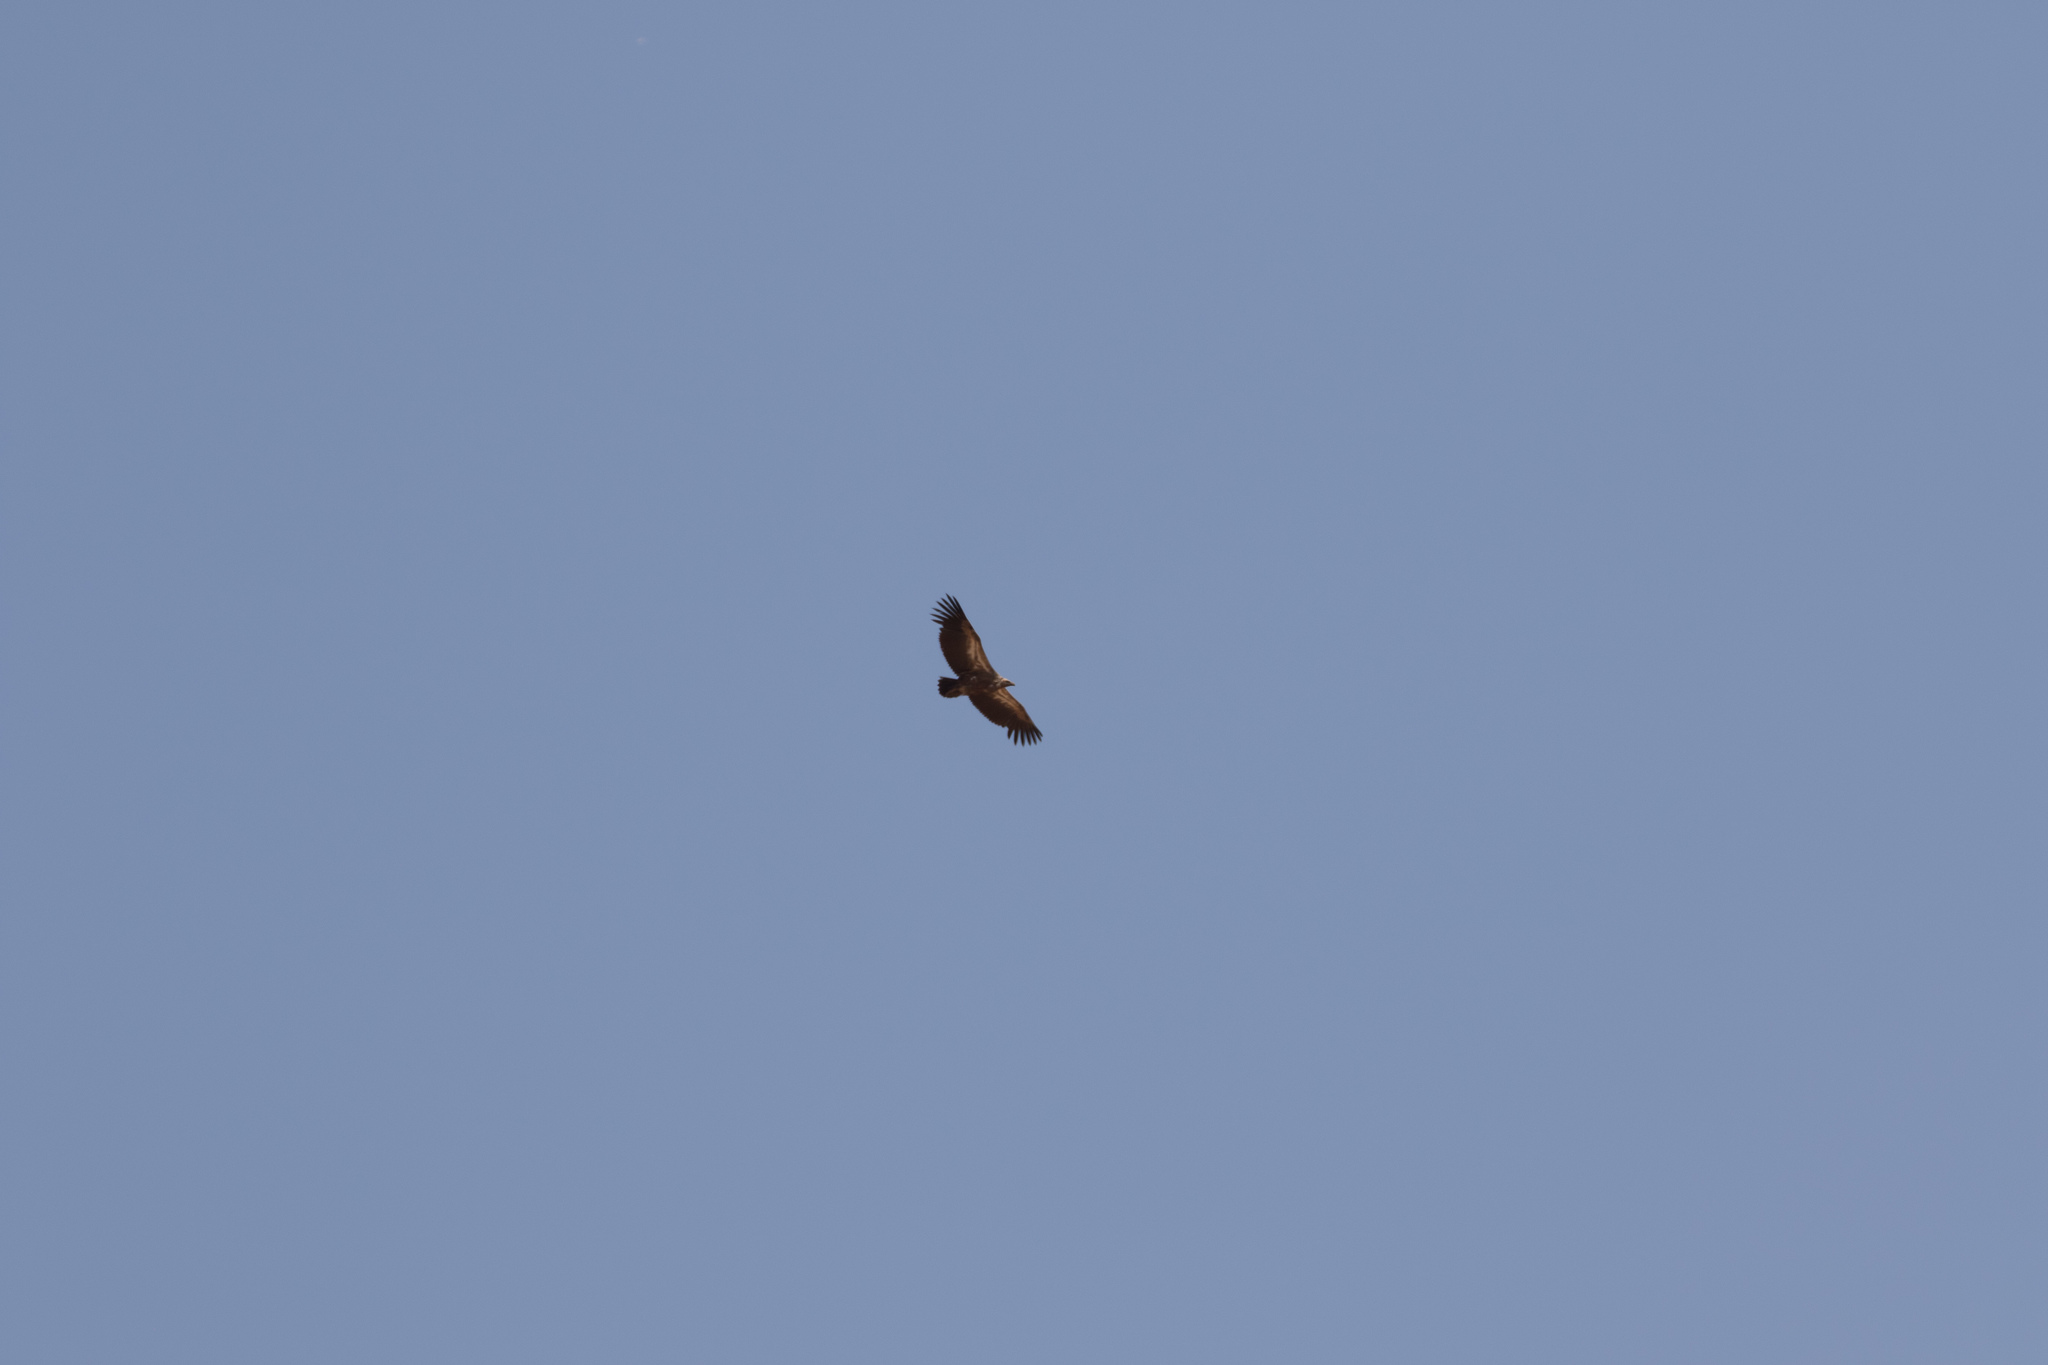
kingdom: Animalia
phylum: Chordata
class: Aves
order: Accipitriformes
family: Accipitridae
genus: Gyps
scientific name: Gyps africanus
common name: White-backed vulture
